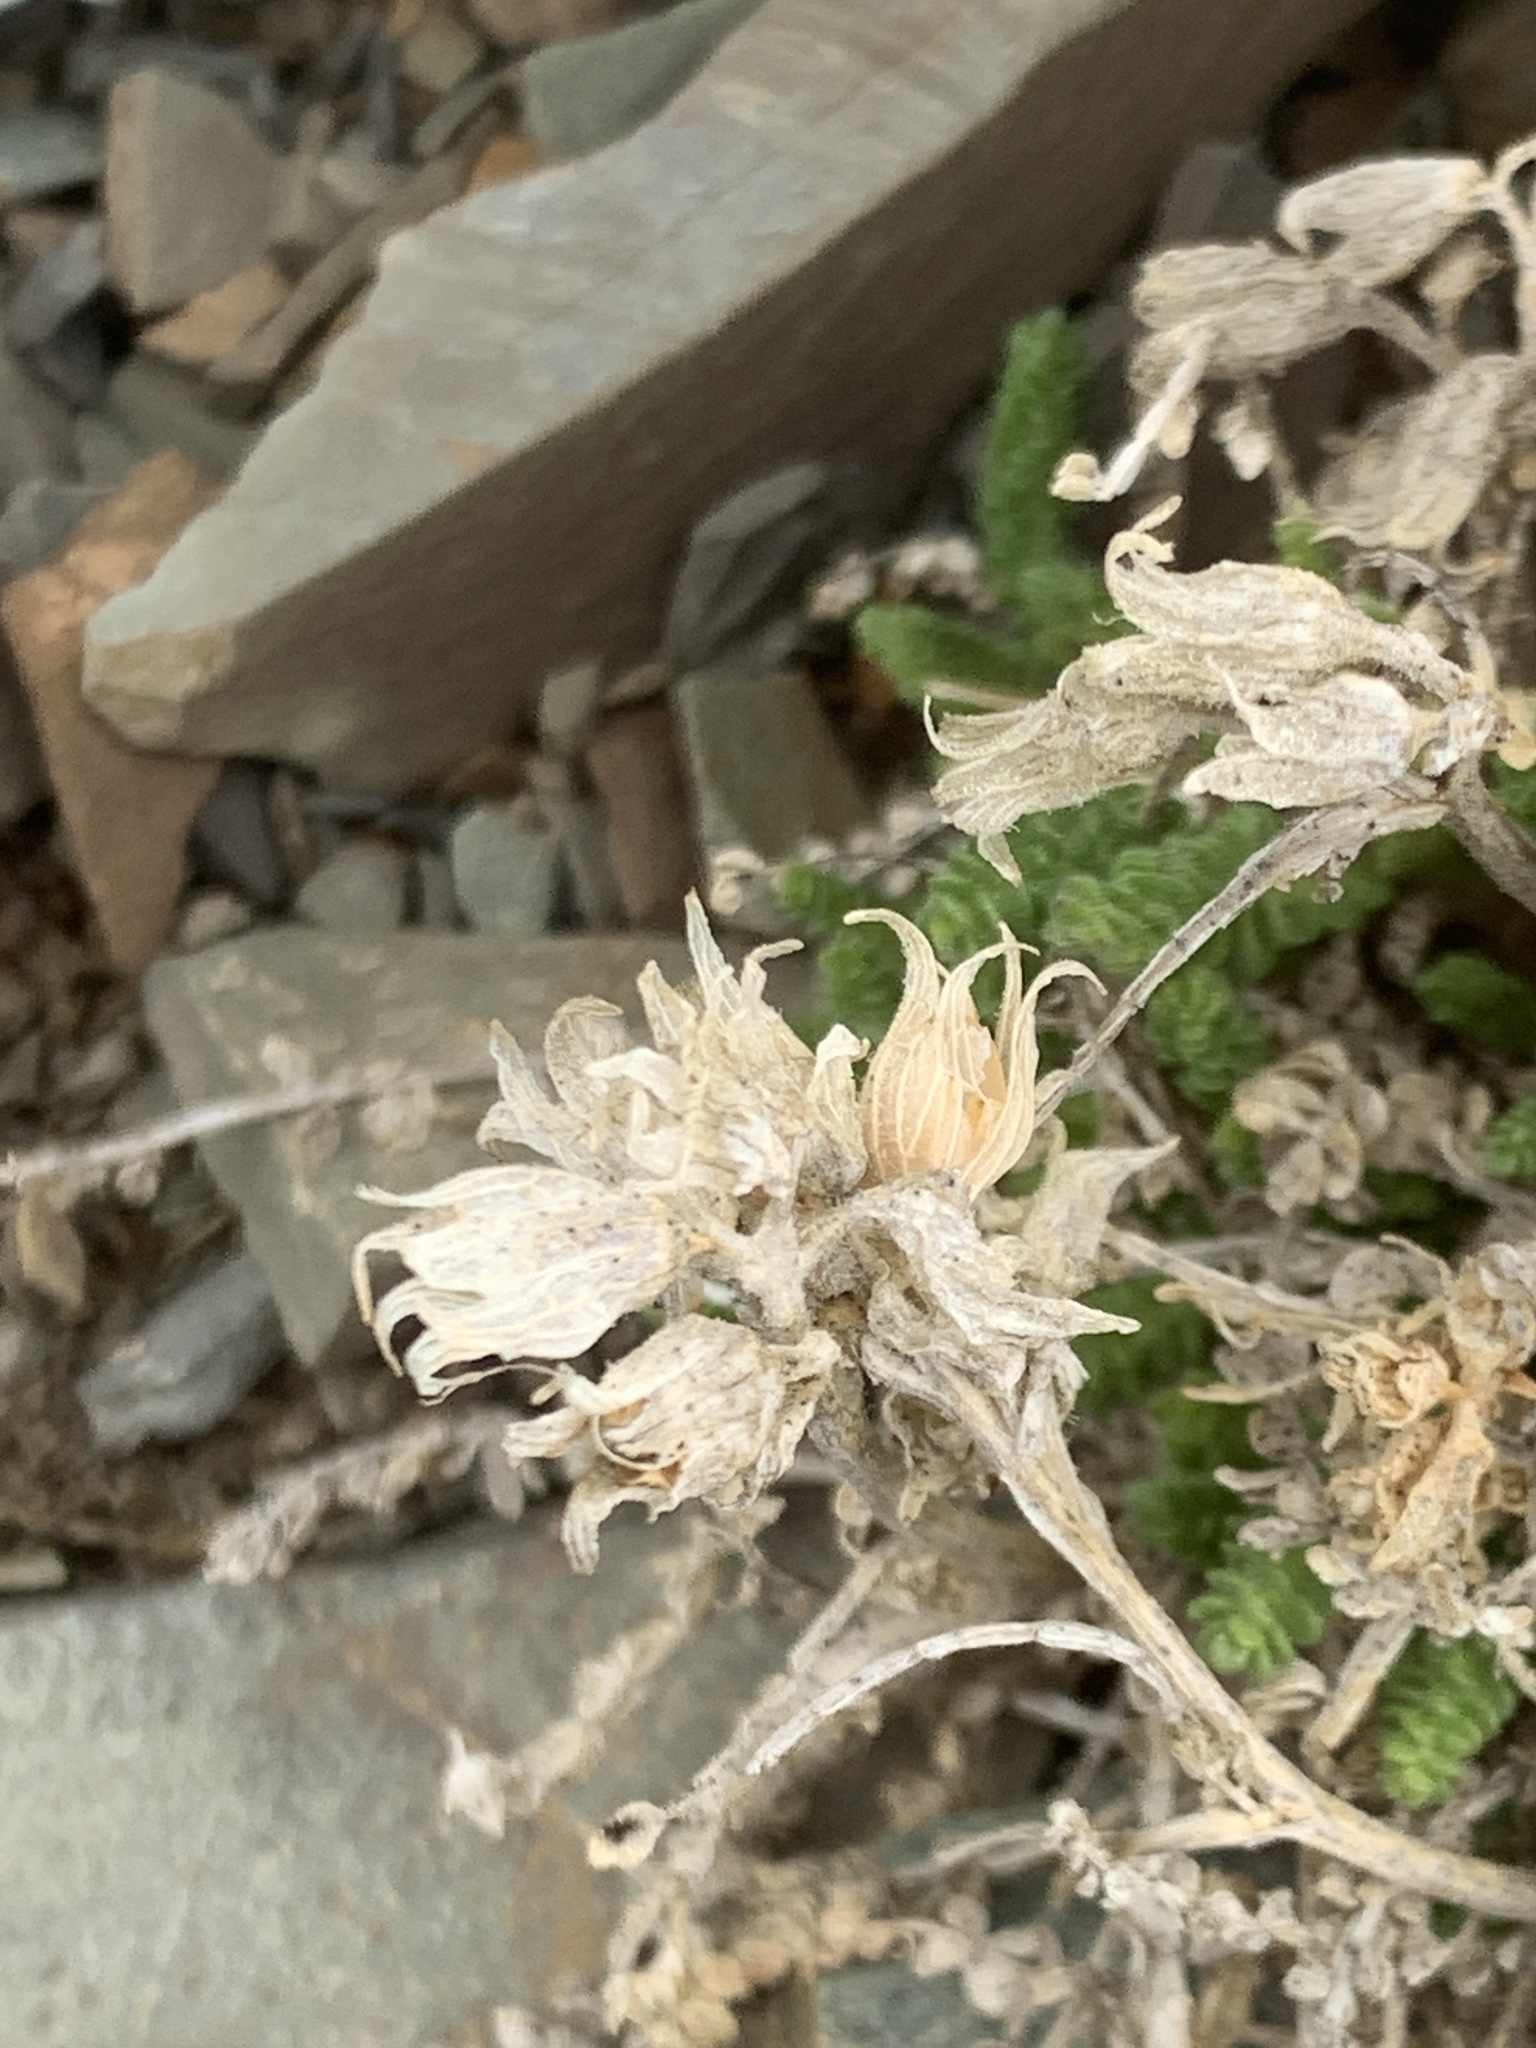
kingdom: Plantae
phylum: Tracheophyta
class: Magnoliopsida
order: Ericales
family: Polemoniaceae
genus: Polemonium
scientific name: Polemonium viscosum
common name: Skunk jacob's-ladder
